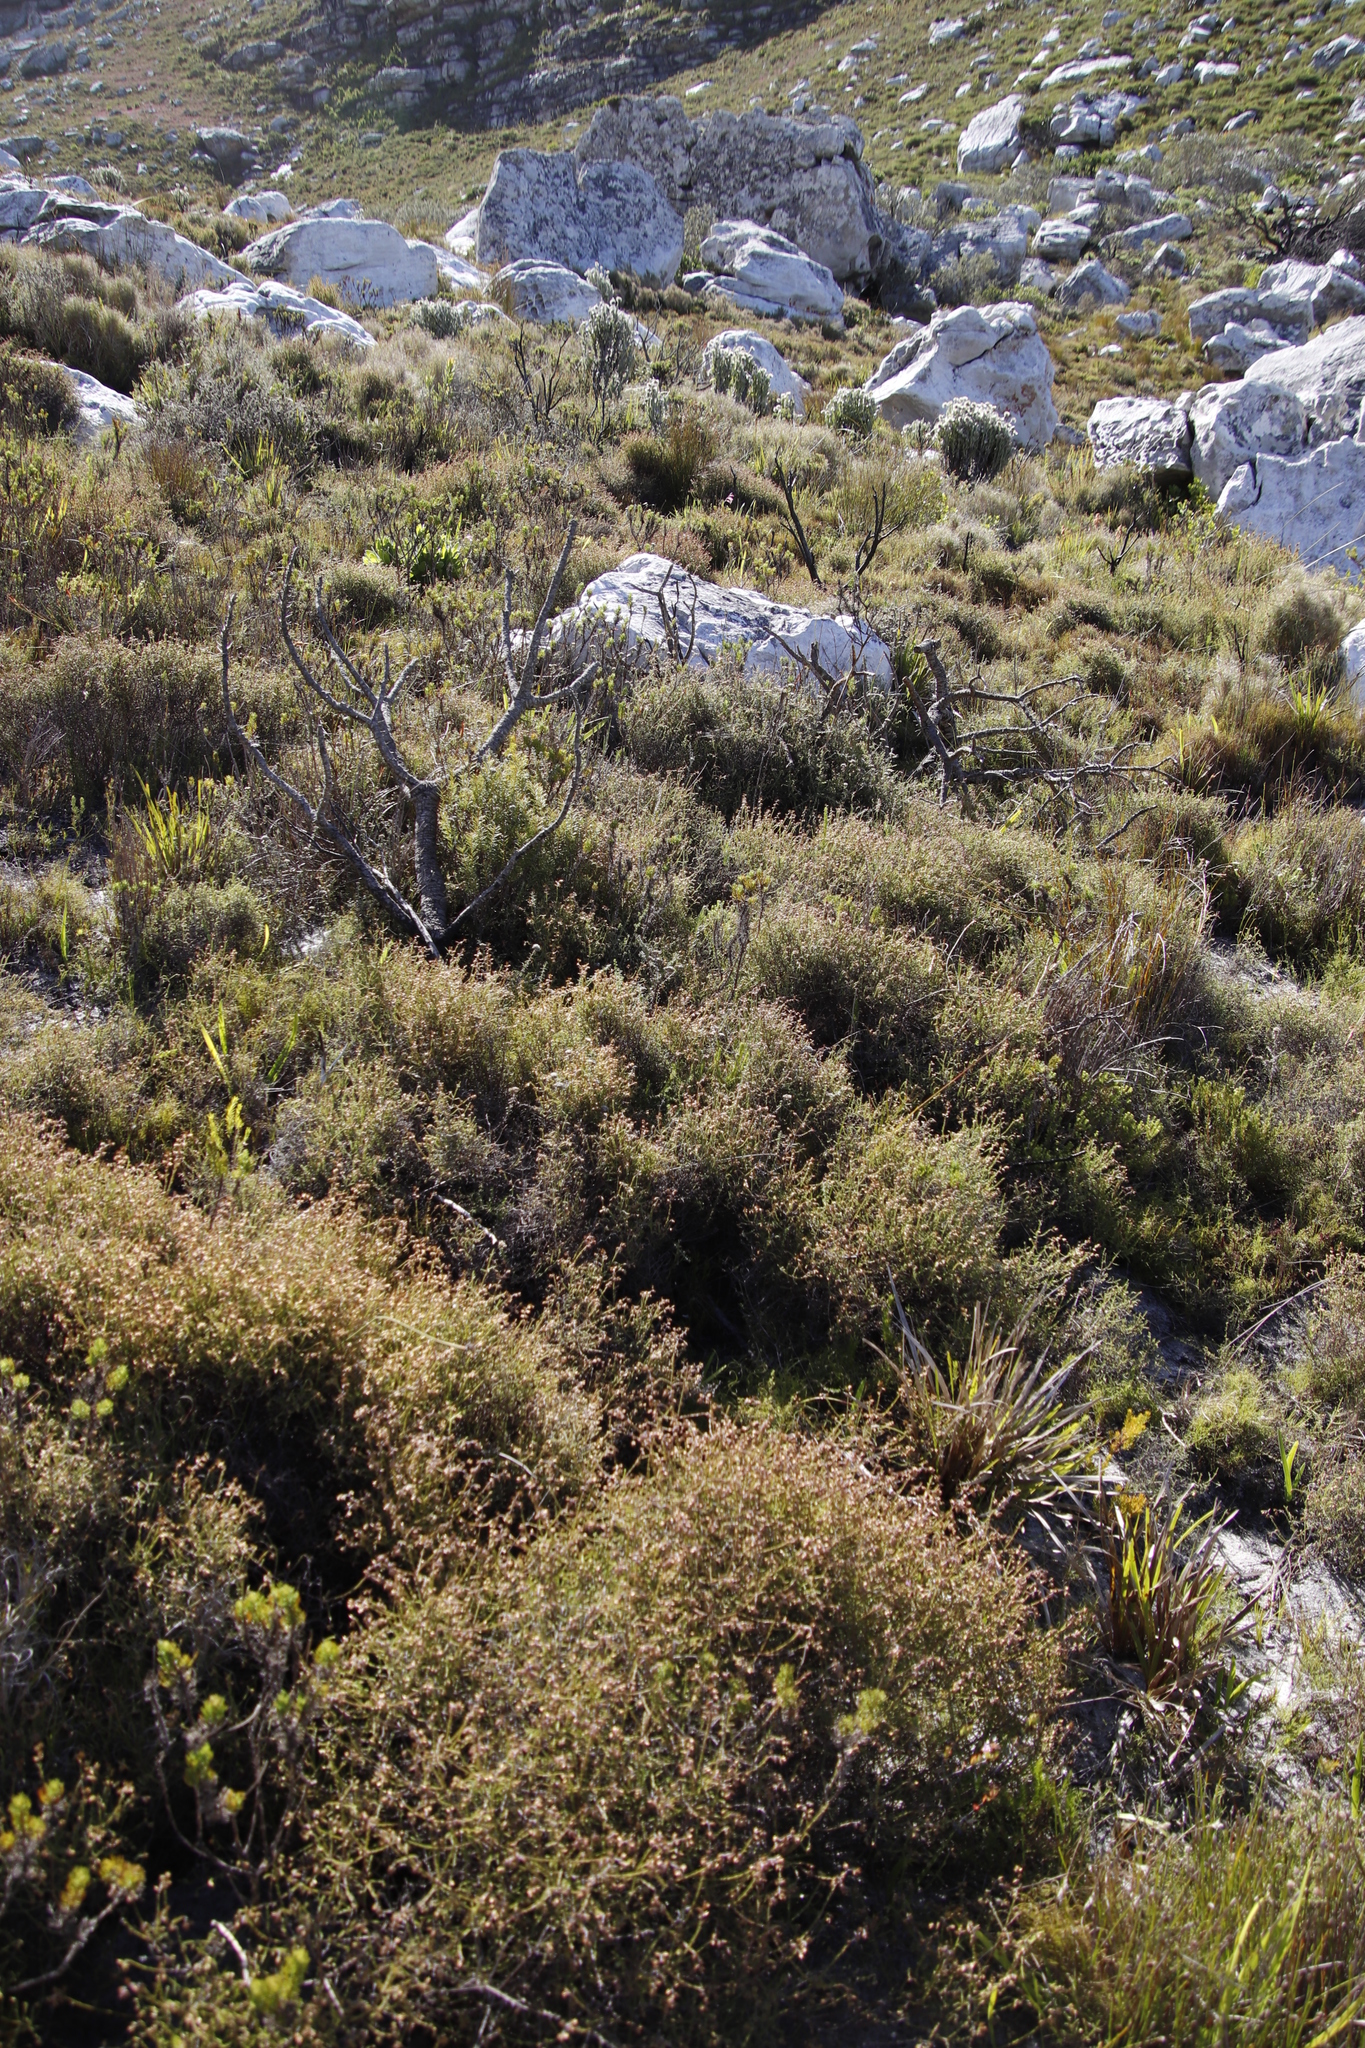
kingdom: Plantae
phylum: Tracheophyta
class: Magnoliopsida
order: Asterales
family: Asteraceae
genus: Myrovernix
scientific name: Myrovernix scaber
